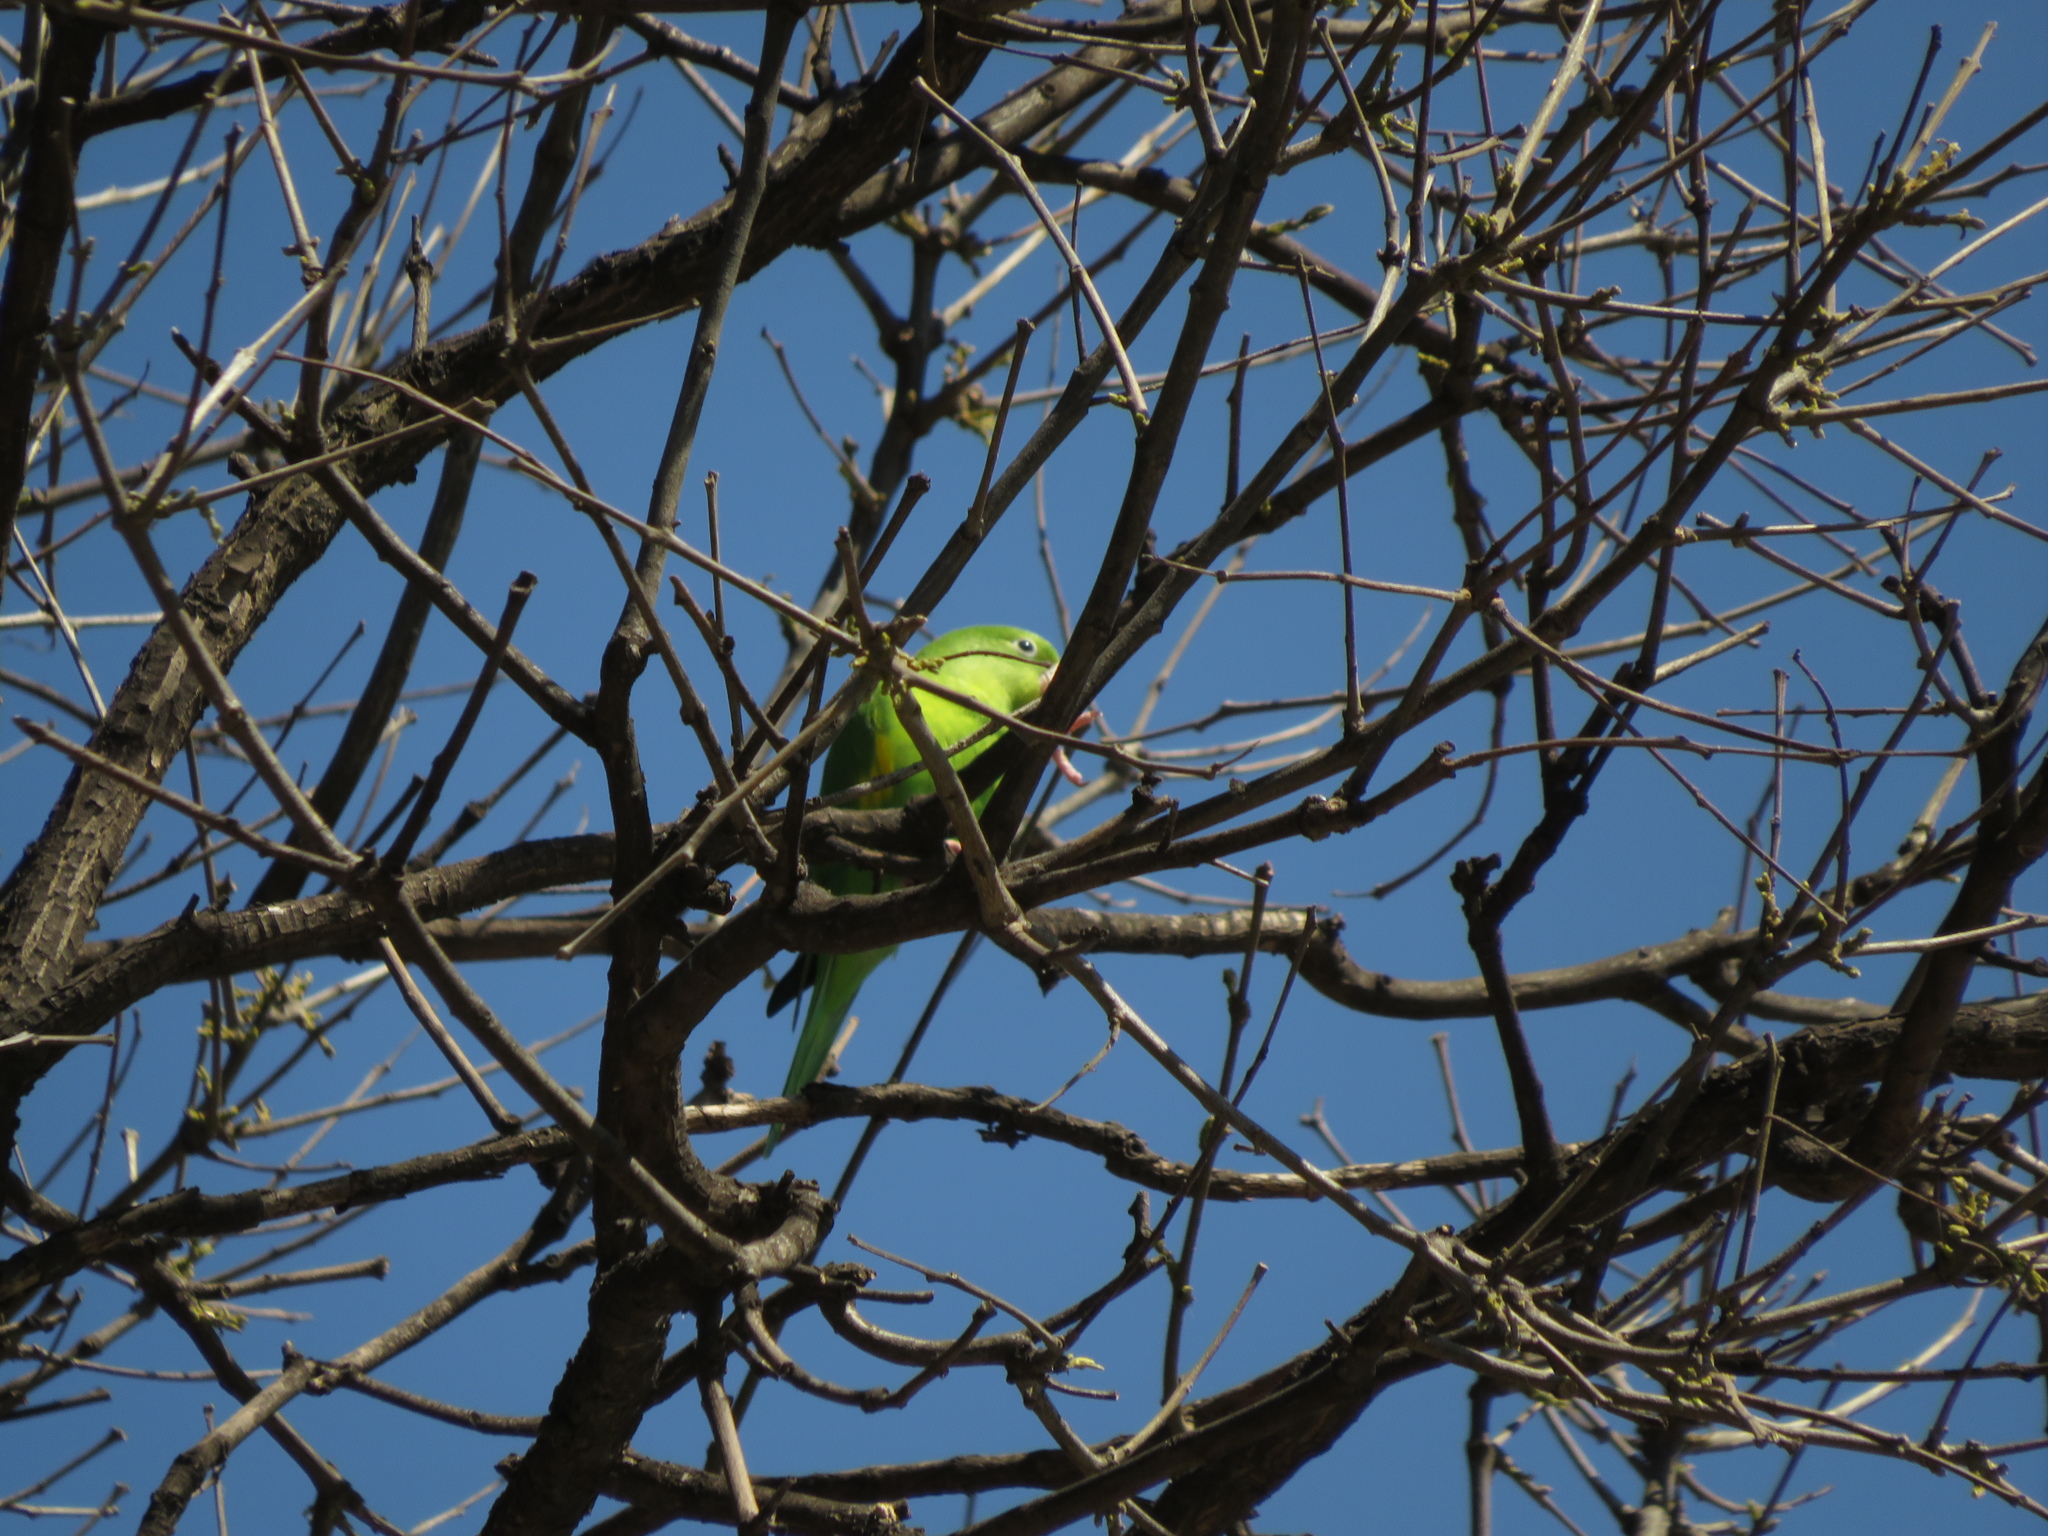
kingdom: Animalia
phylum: Chordata
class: Aves
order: Psittaciformes
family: Psittacidae
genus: Brotogeris
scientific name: Brotogeris chiriri
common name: Yellow-chevroned parakeet
